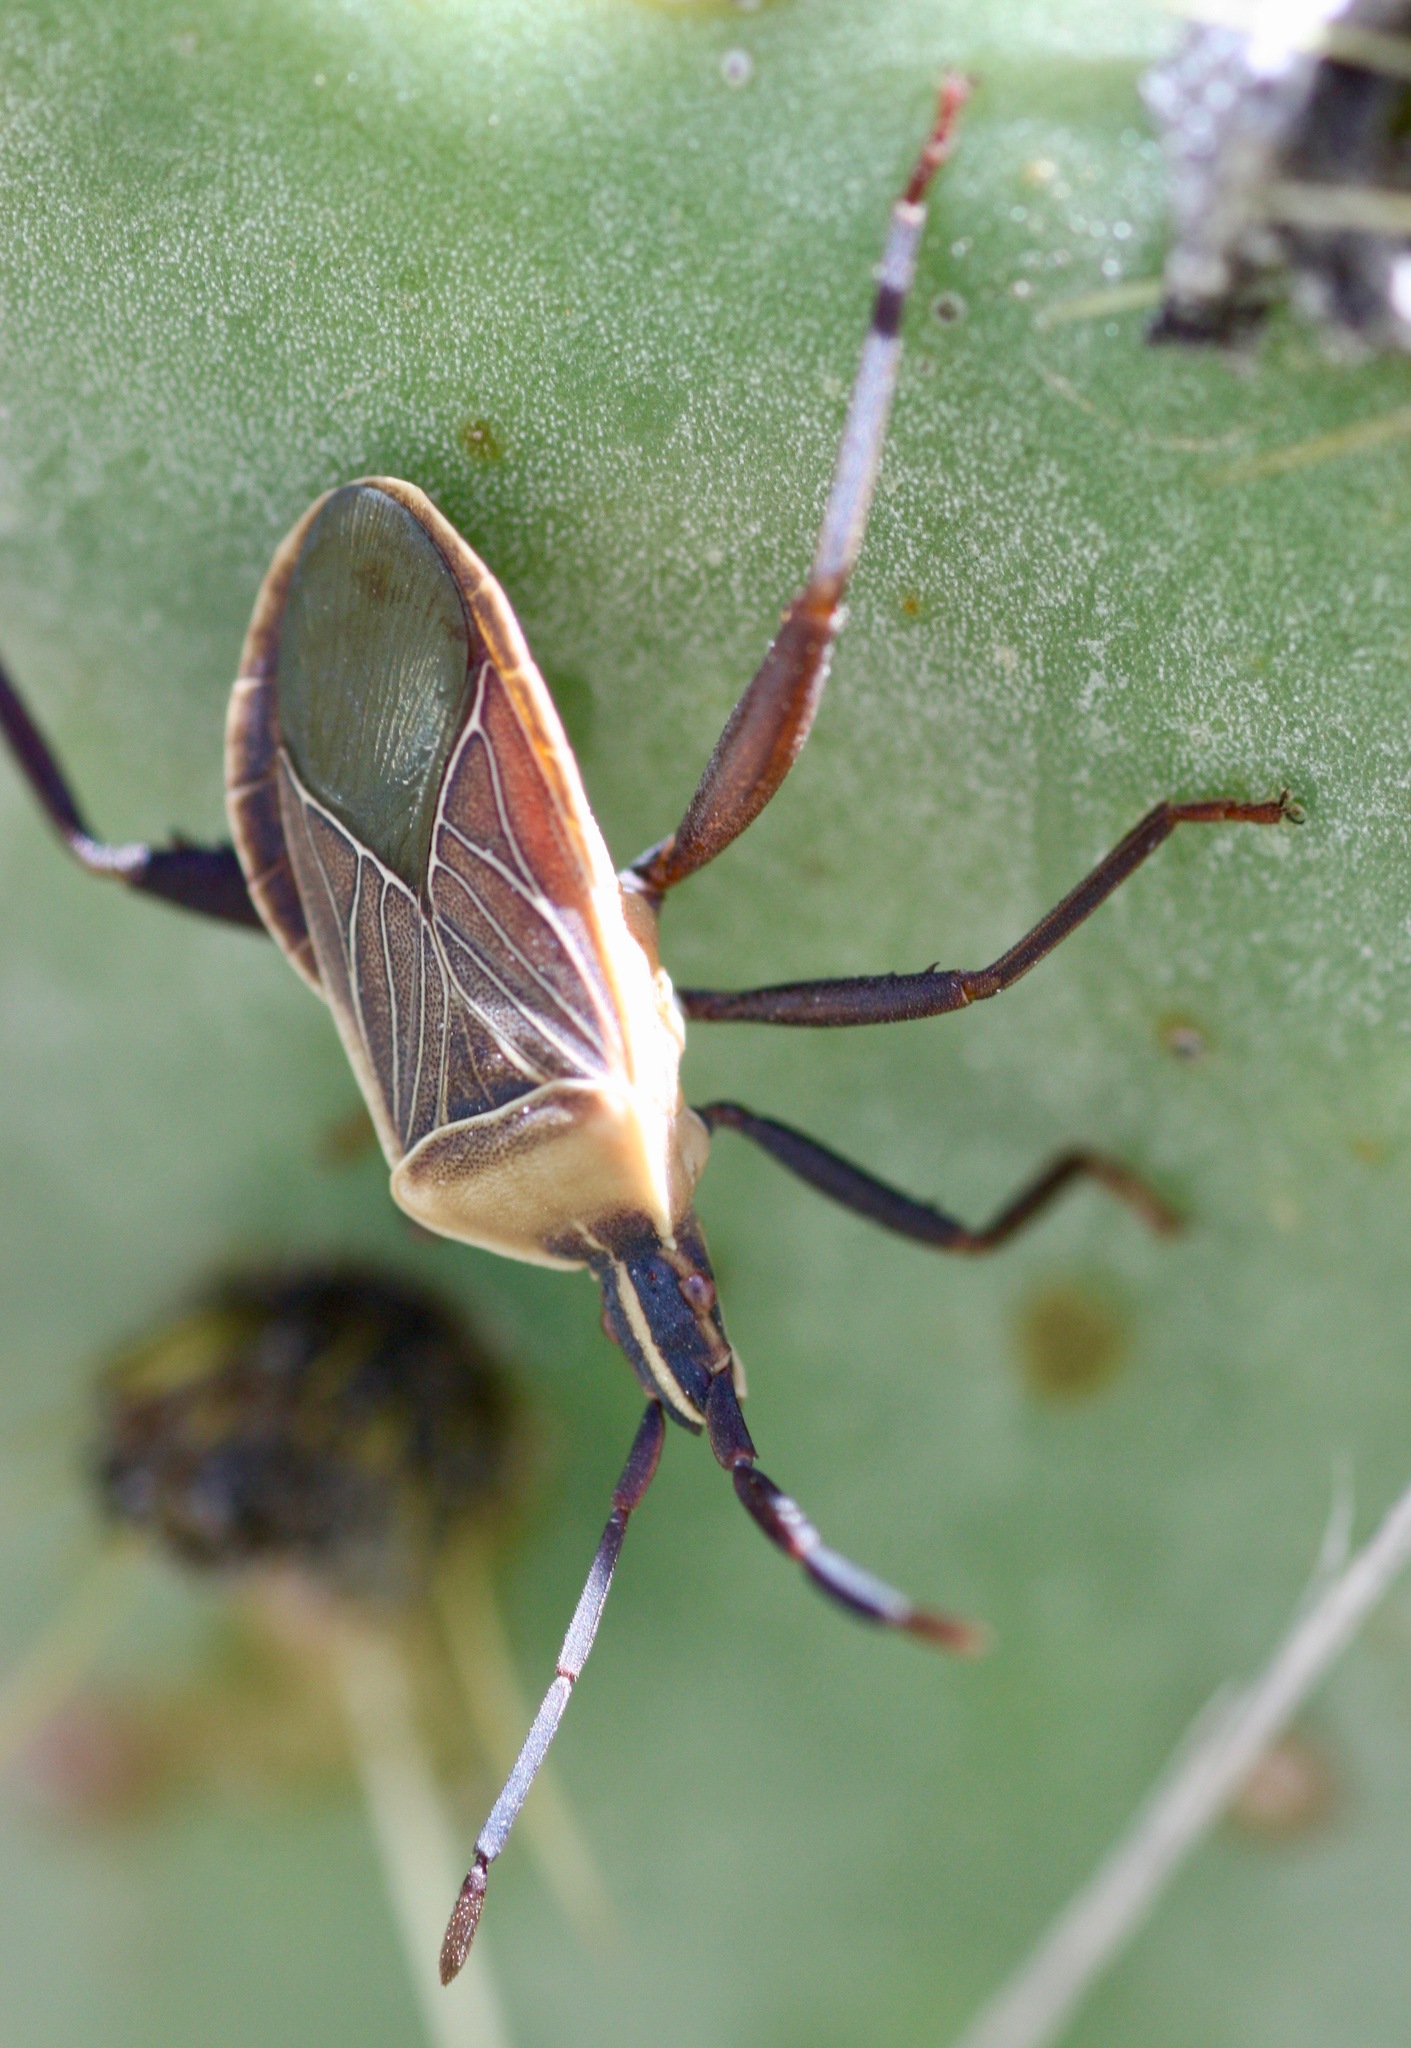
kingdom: Animalia
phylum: Arthropoda
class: Insecta
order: Hemiptera
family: Coreidae
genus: Chelinidea
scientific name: Chelinidea vittiger
